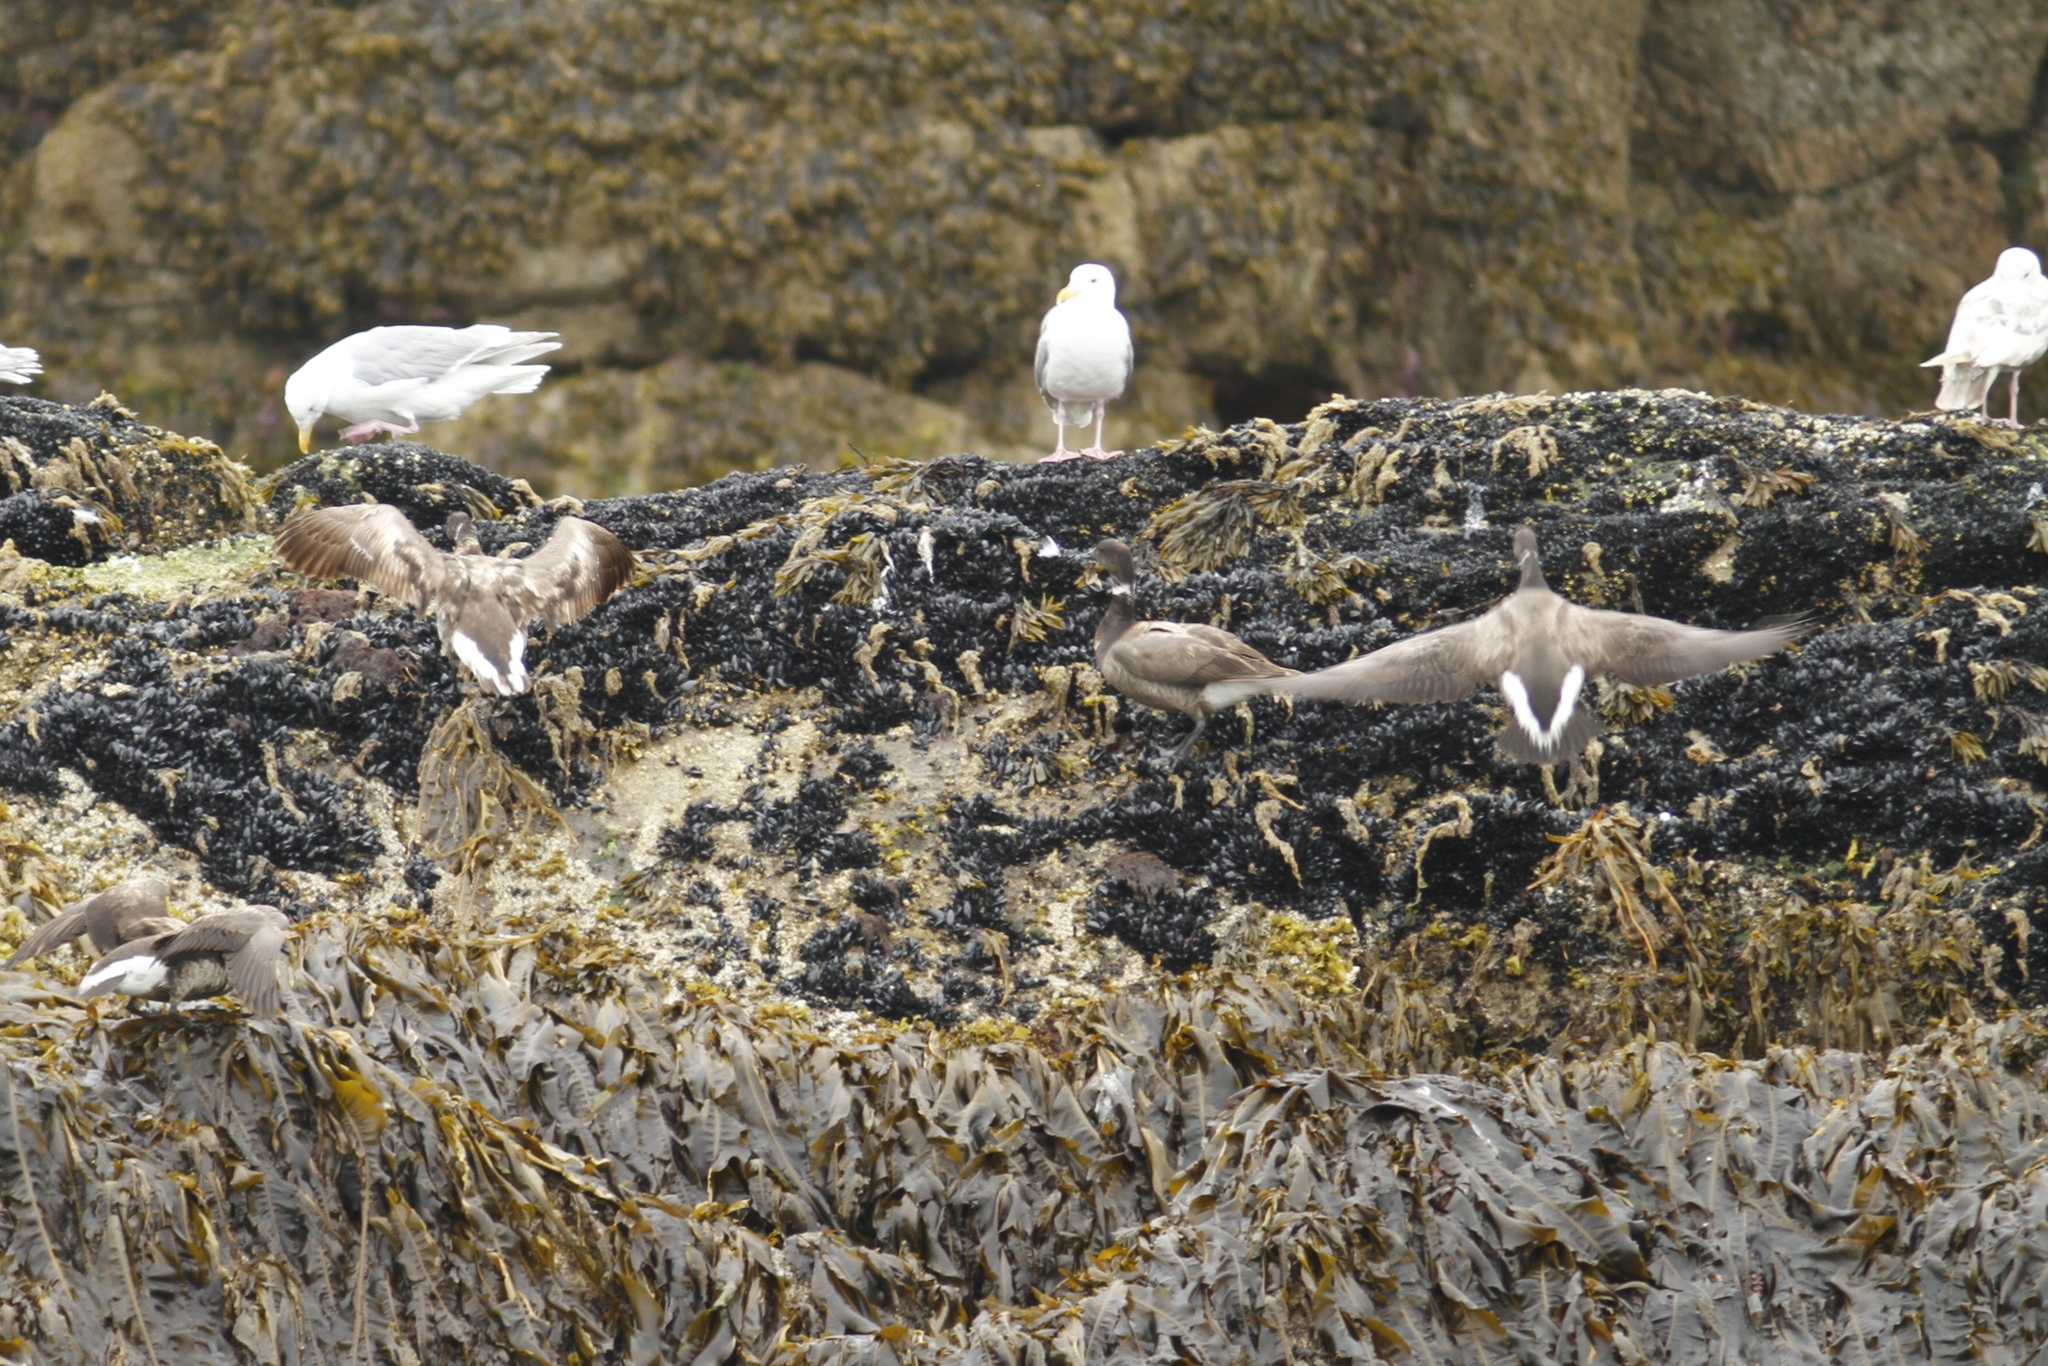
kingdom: Animalia
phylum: Chordata
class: Aves
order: Anseriformes
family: Anatidae
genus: Branta
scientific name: Branta bernicla
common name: Brant goose
